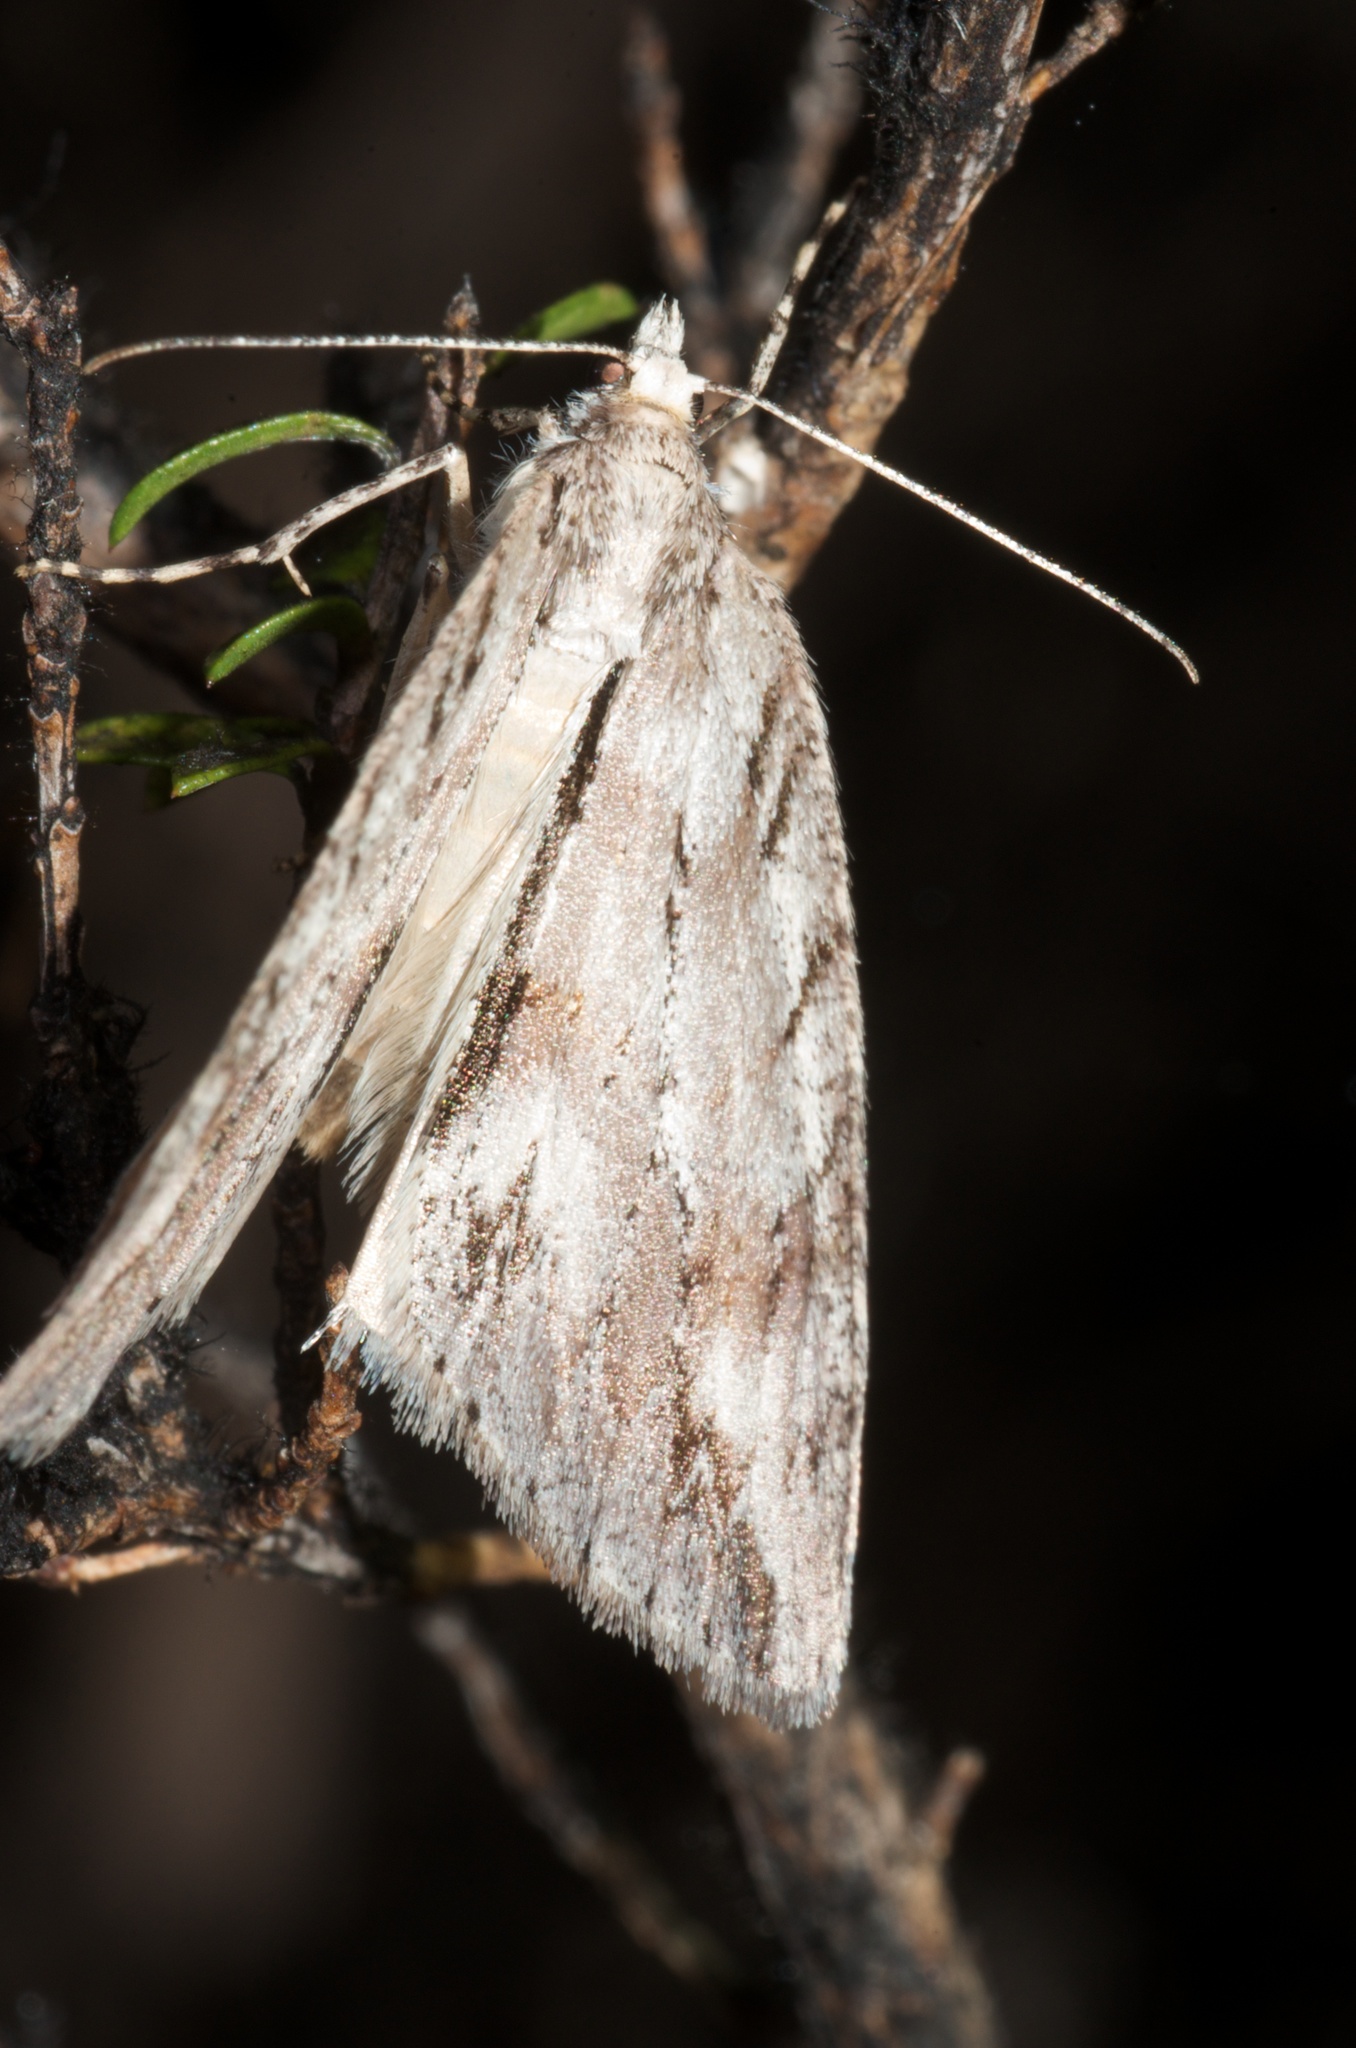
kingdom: Animalia
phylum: Arthropoda
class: Insecta
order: Lepidoptera
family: Geometridae
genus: Pseudocoremia
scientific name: Pseudocoremia lupinata
